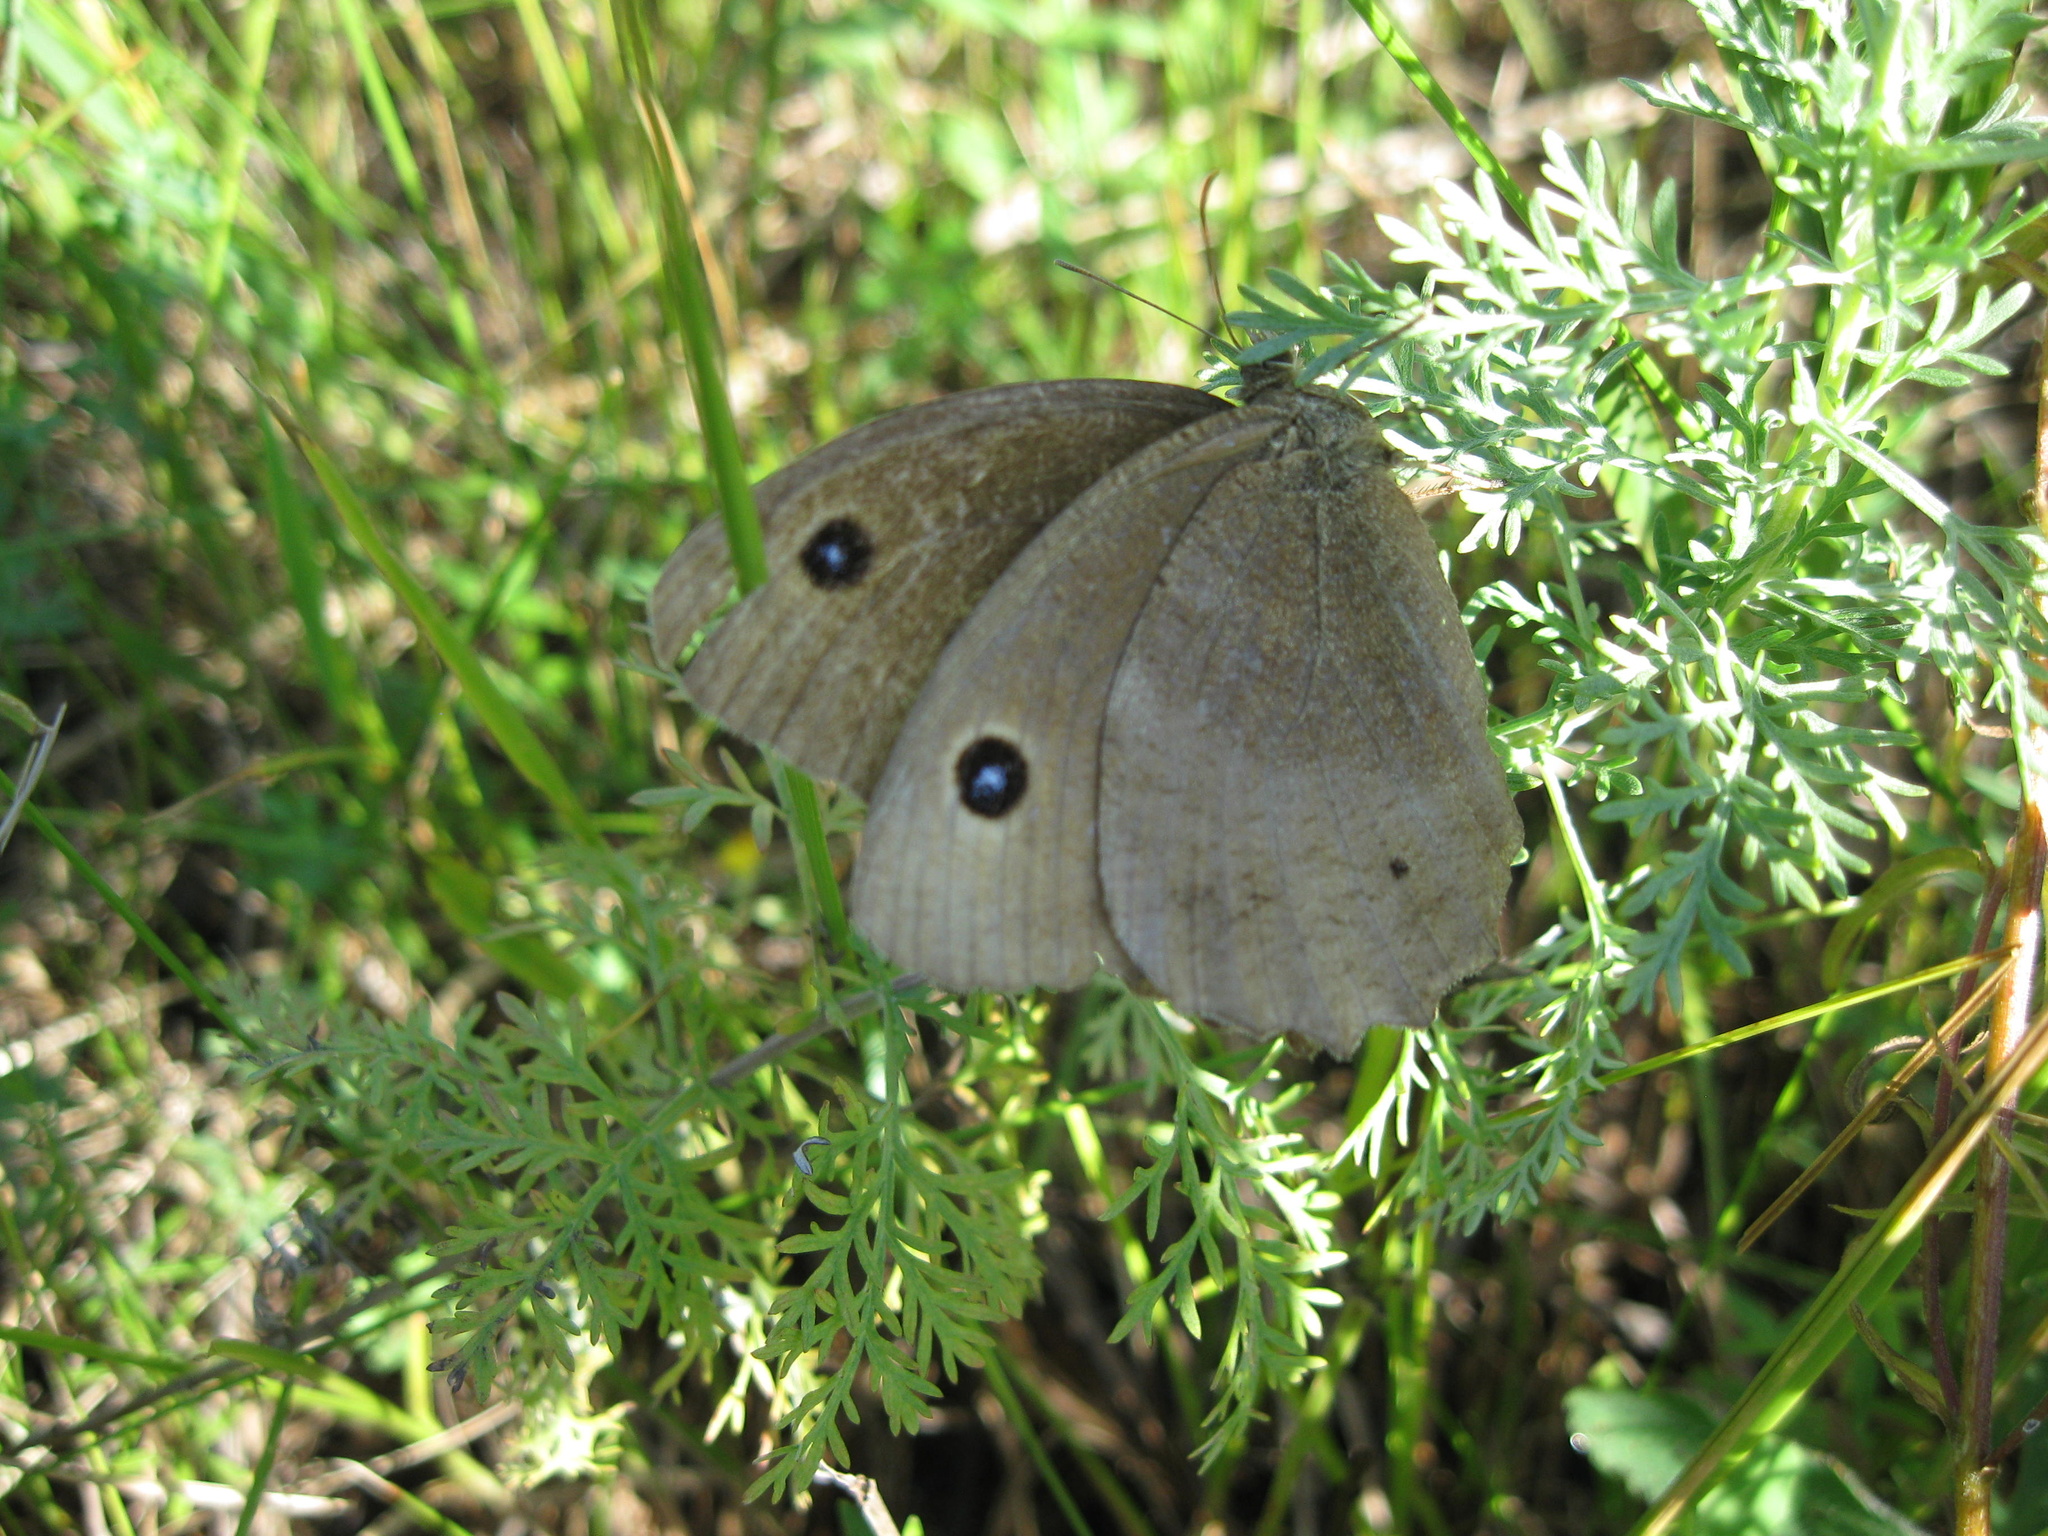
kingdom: Animalia
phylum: Arthropoda
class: Insecta
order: Lepidoptera
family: Nymphalidae
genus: Minois
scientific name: Minois dryas
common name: Dryad
